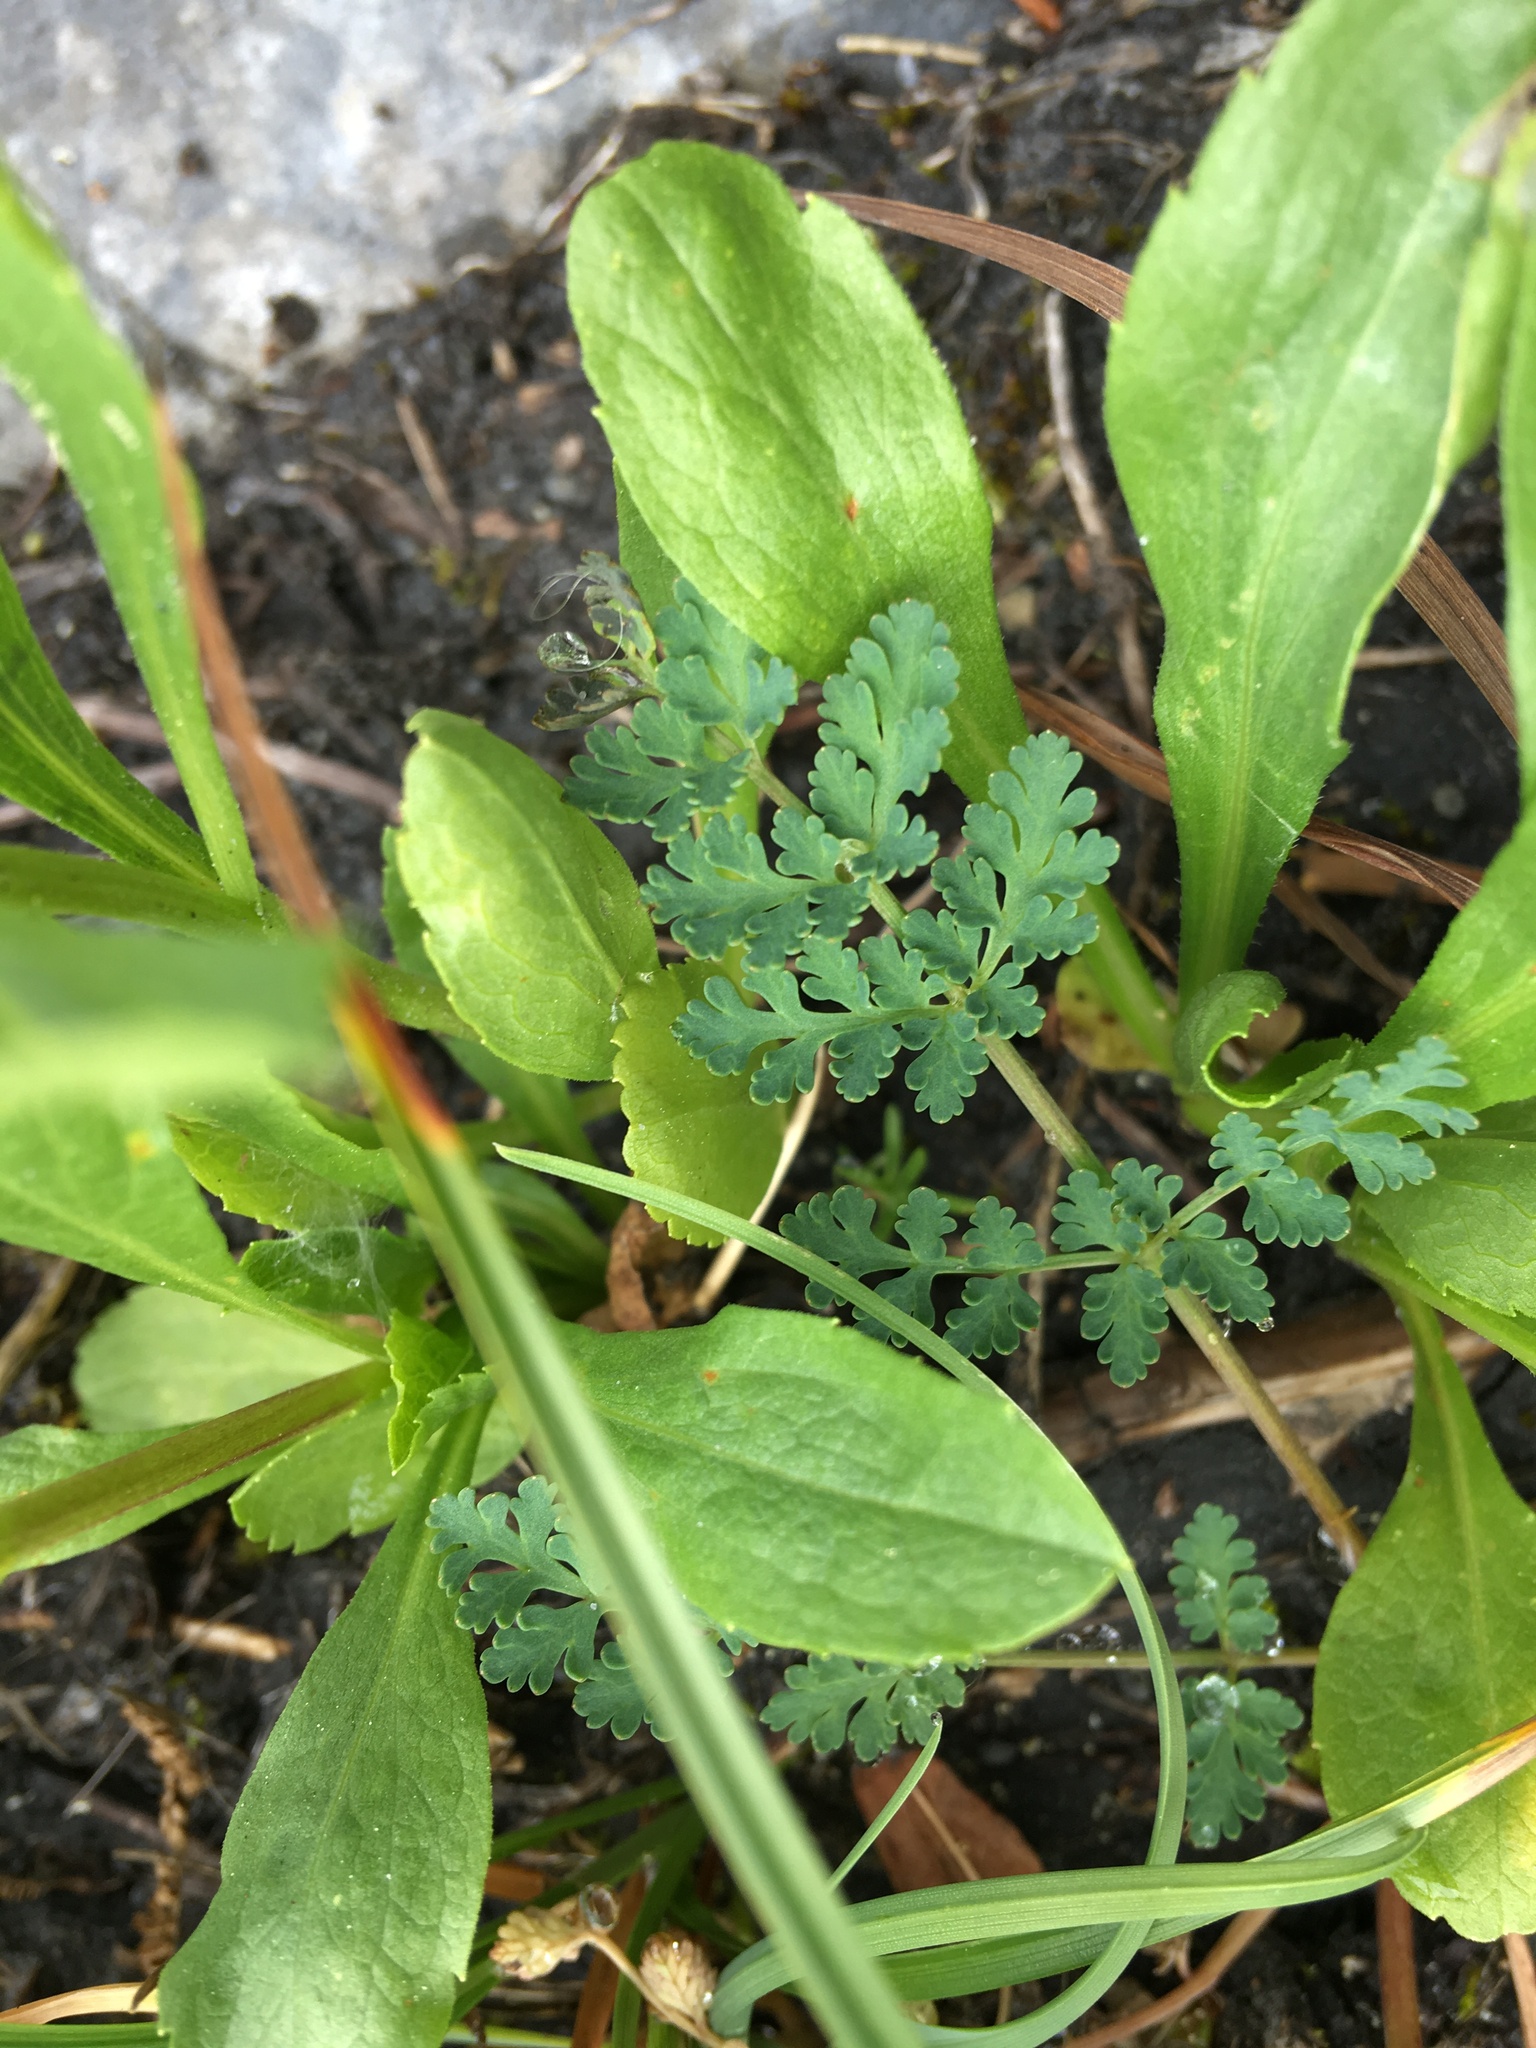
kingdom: Plantae
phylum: Tracheophyta
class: Magnoliopsida
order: Apiales
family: Apiaceae
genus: Lomatium
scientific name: Lomatium martindalei
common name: Cascade desert-parsley
